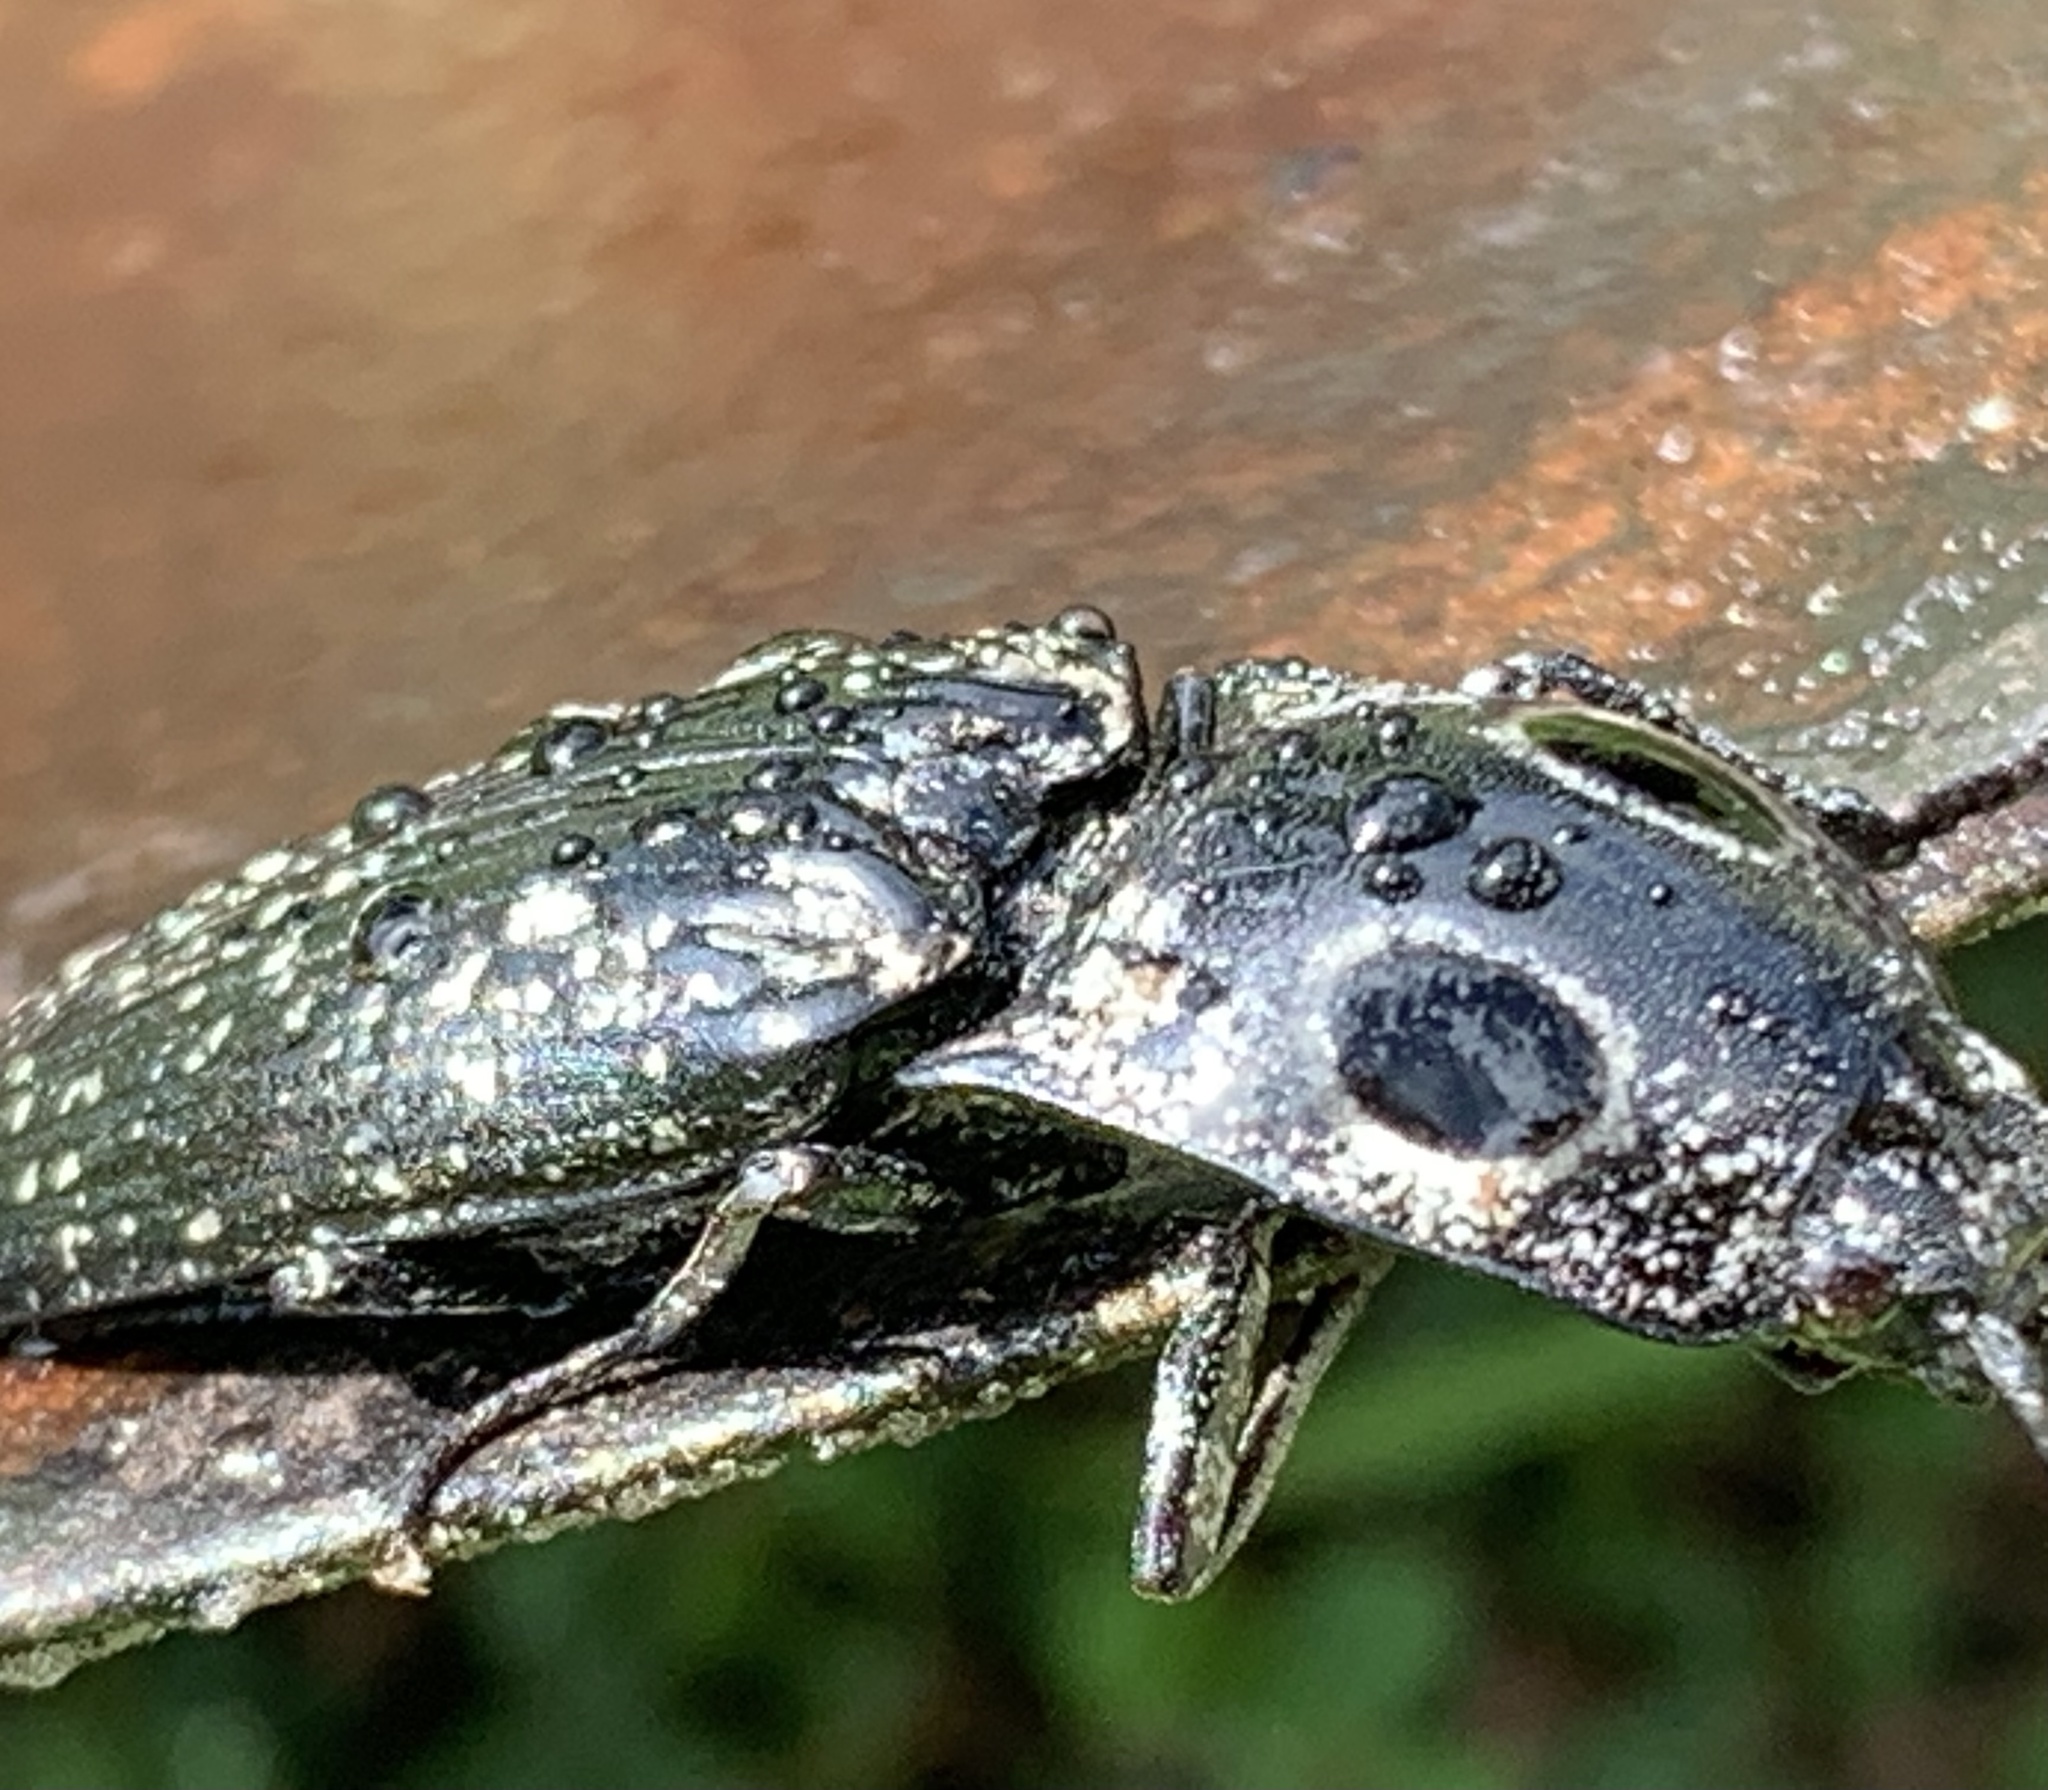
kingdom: Animalia
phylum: Arthropoda
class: Insecta
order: Coleoptera
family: Elateridae
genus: Alaus
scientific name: Alaus oculatus
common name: Eastern eyed click beetle
